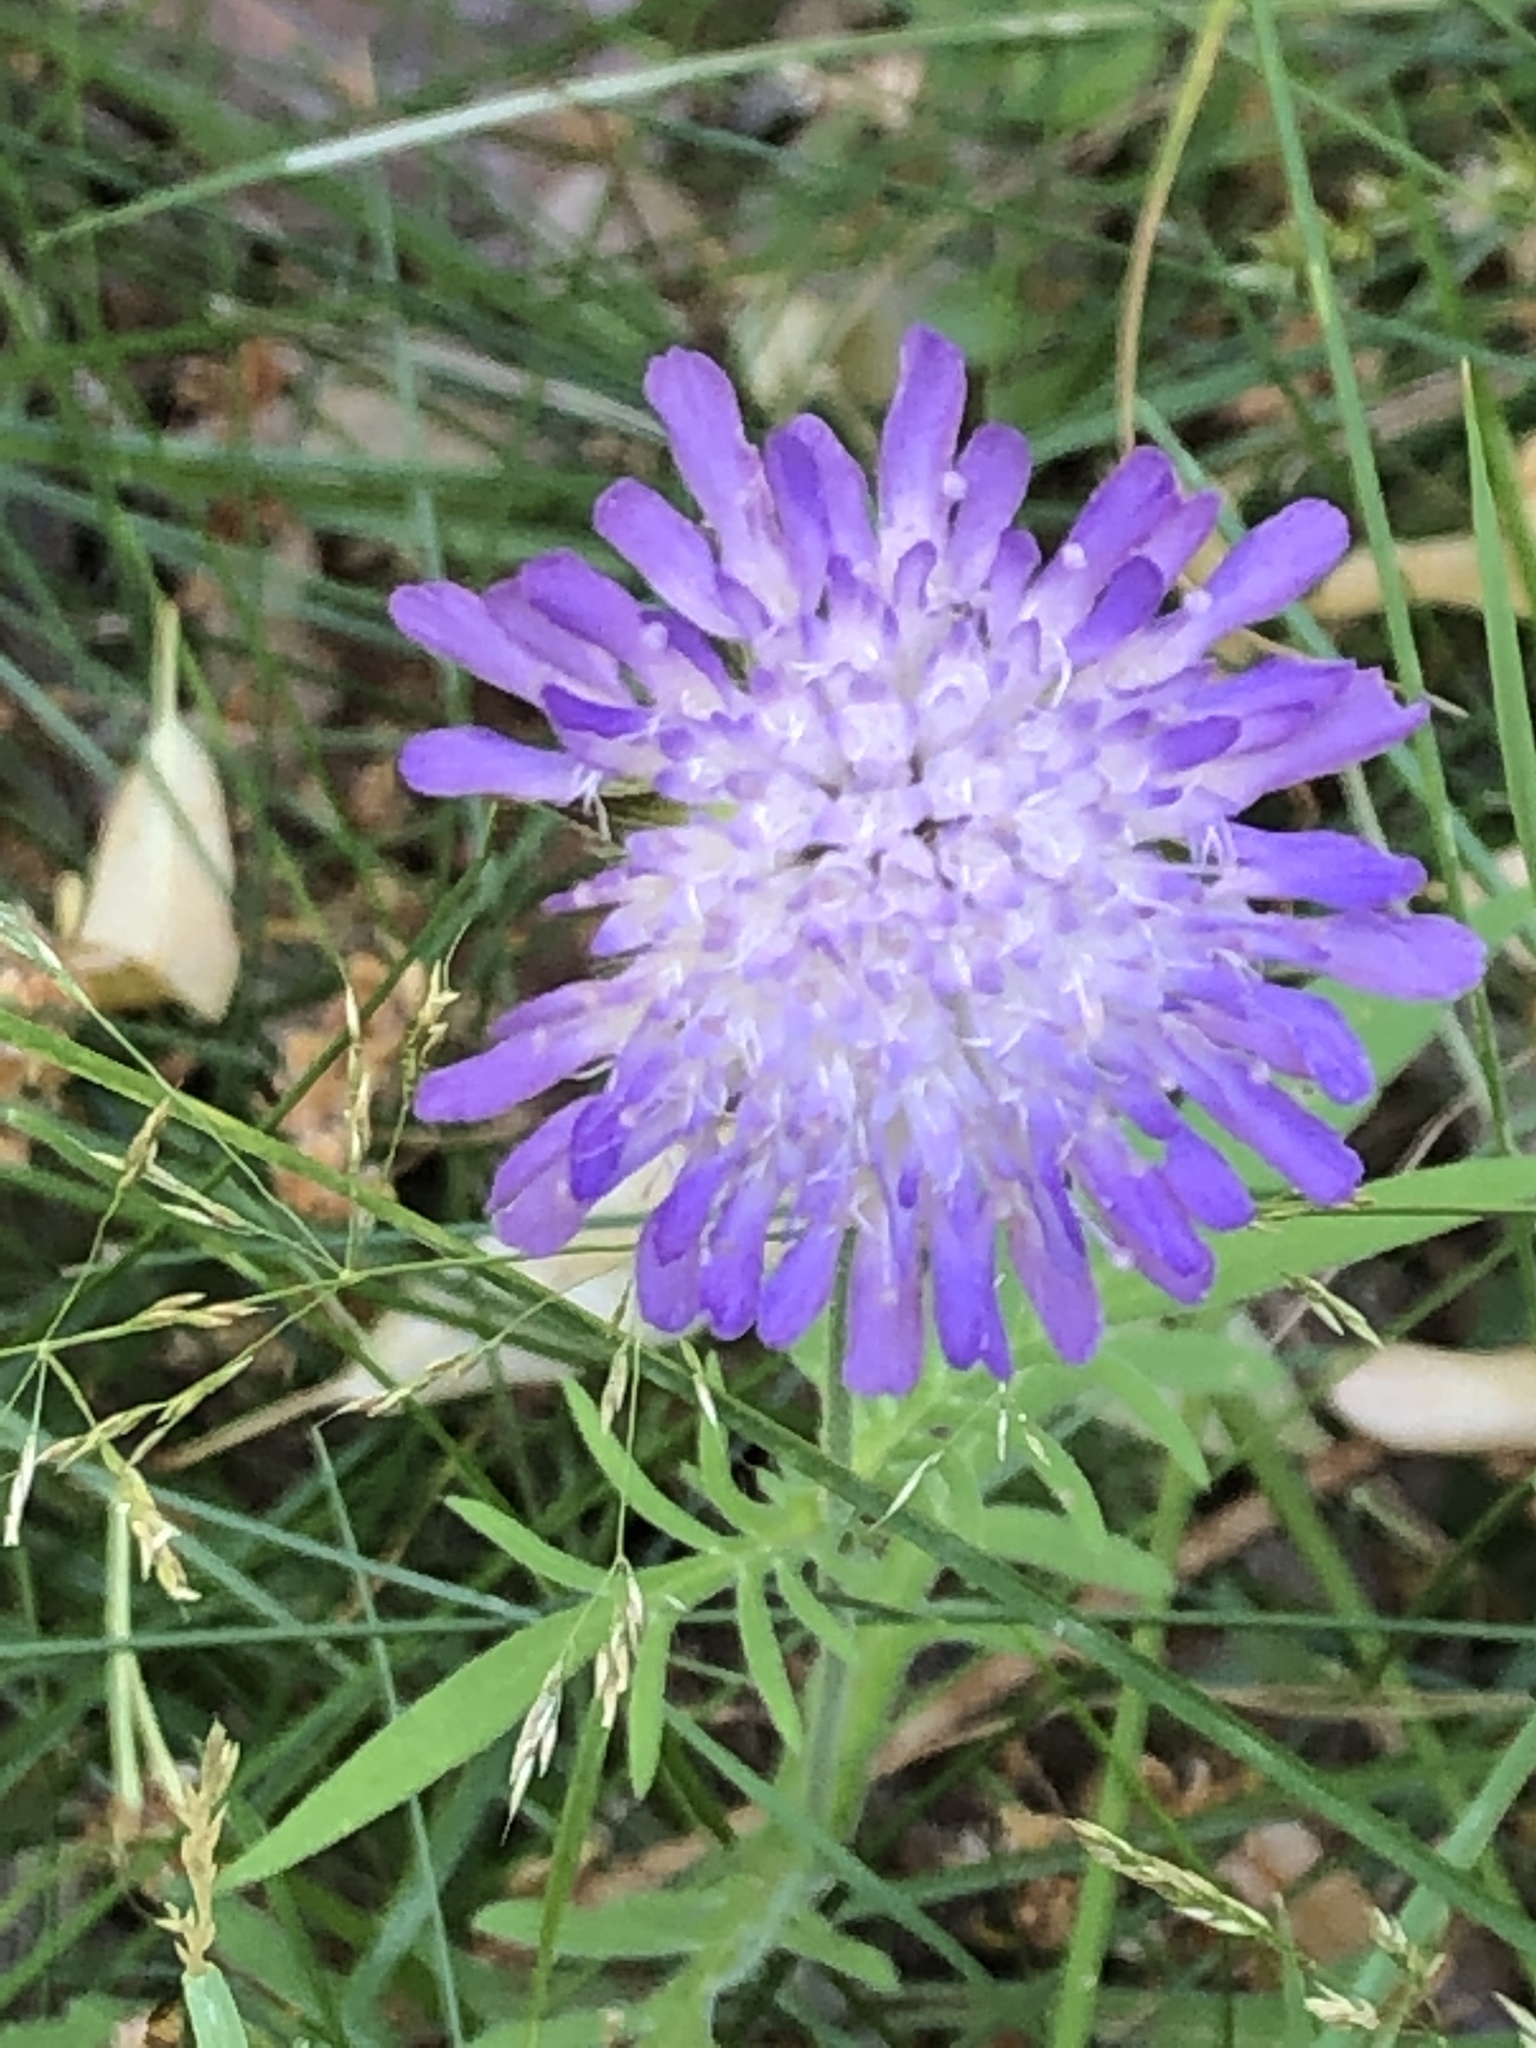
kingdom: Plantae
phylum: Tracheophyta
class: Magnoliopsida
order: Dipsacales
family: Caprifoliaceae
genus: Knautia
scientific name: Knautia arvensis
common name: Field scabiosa
